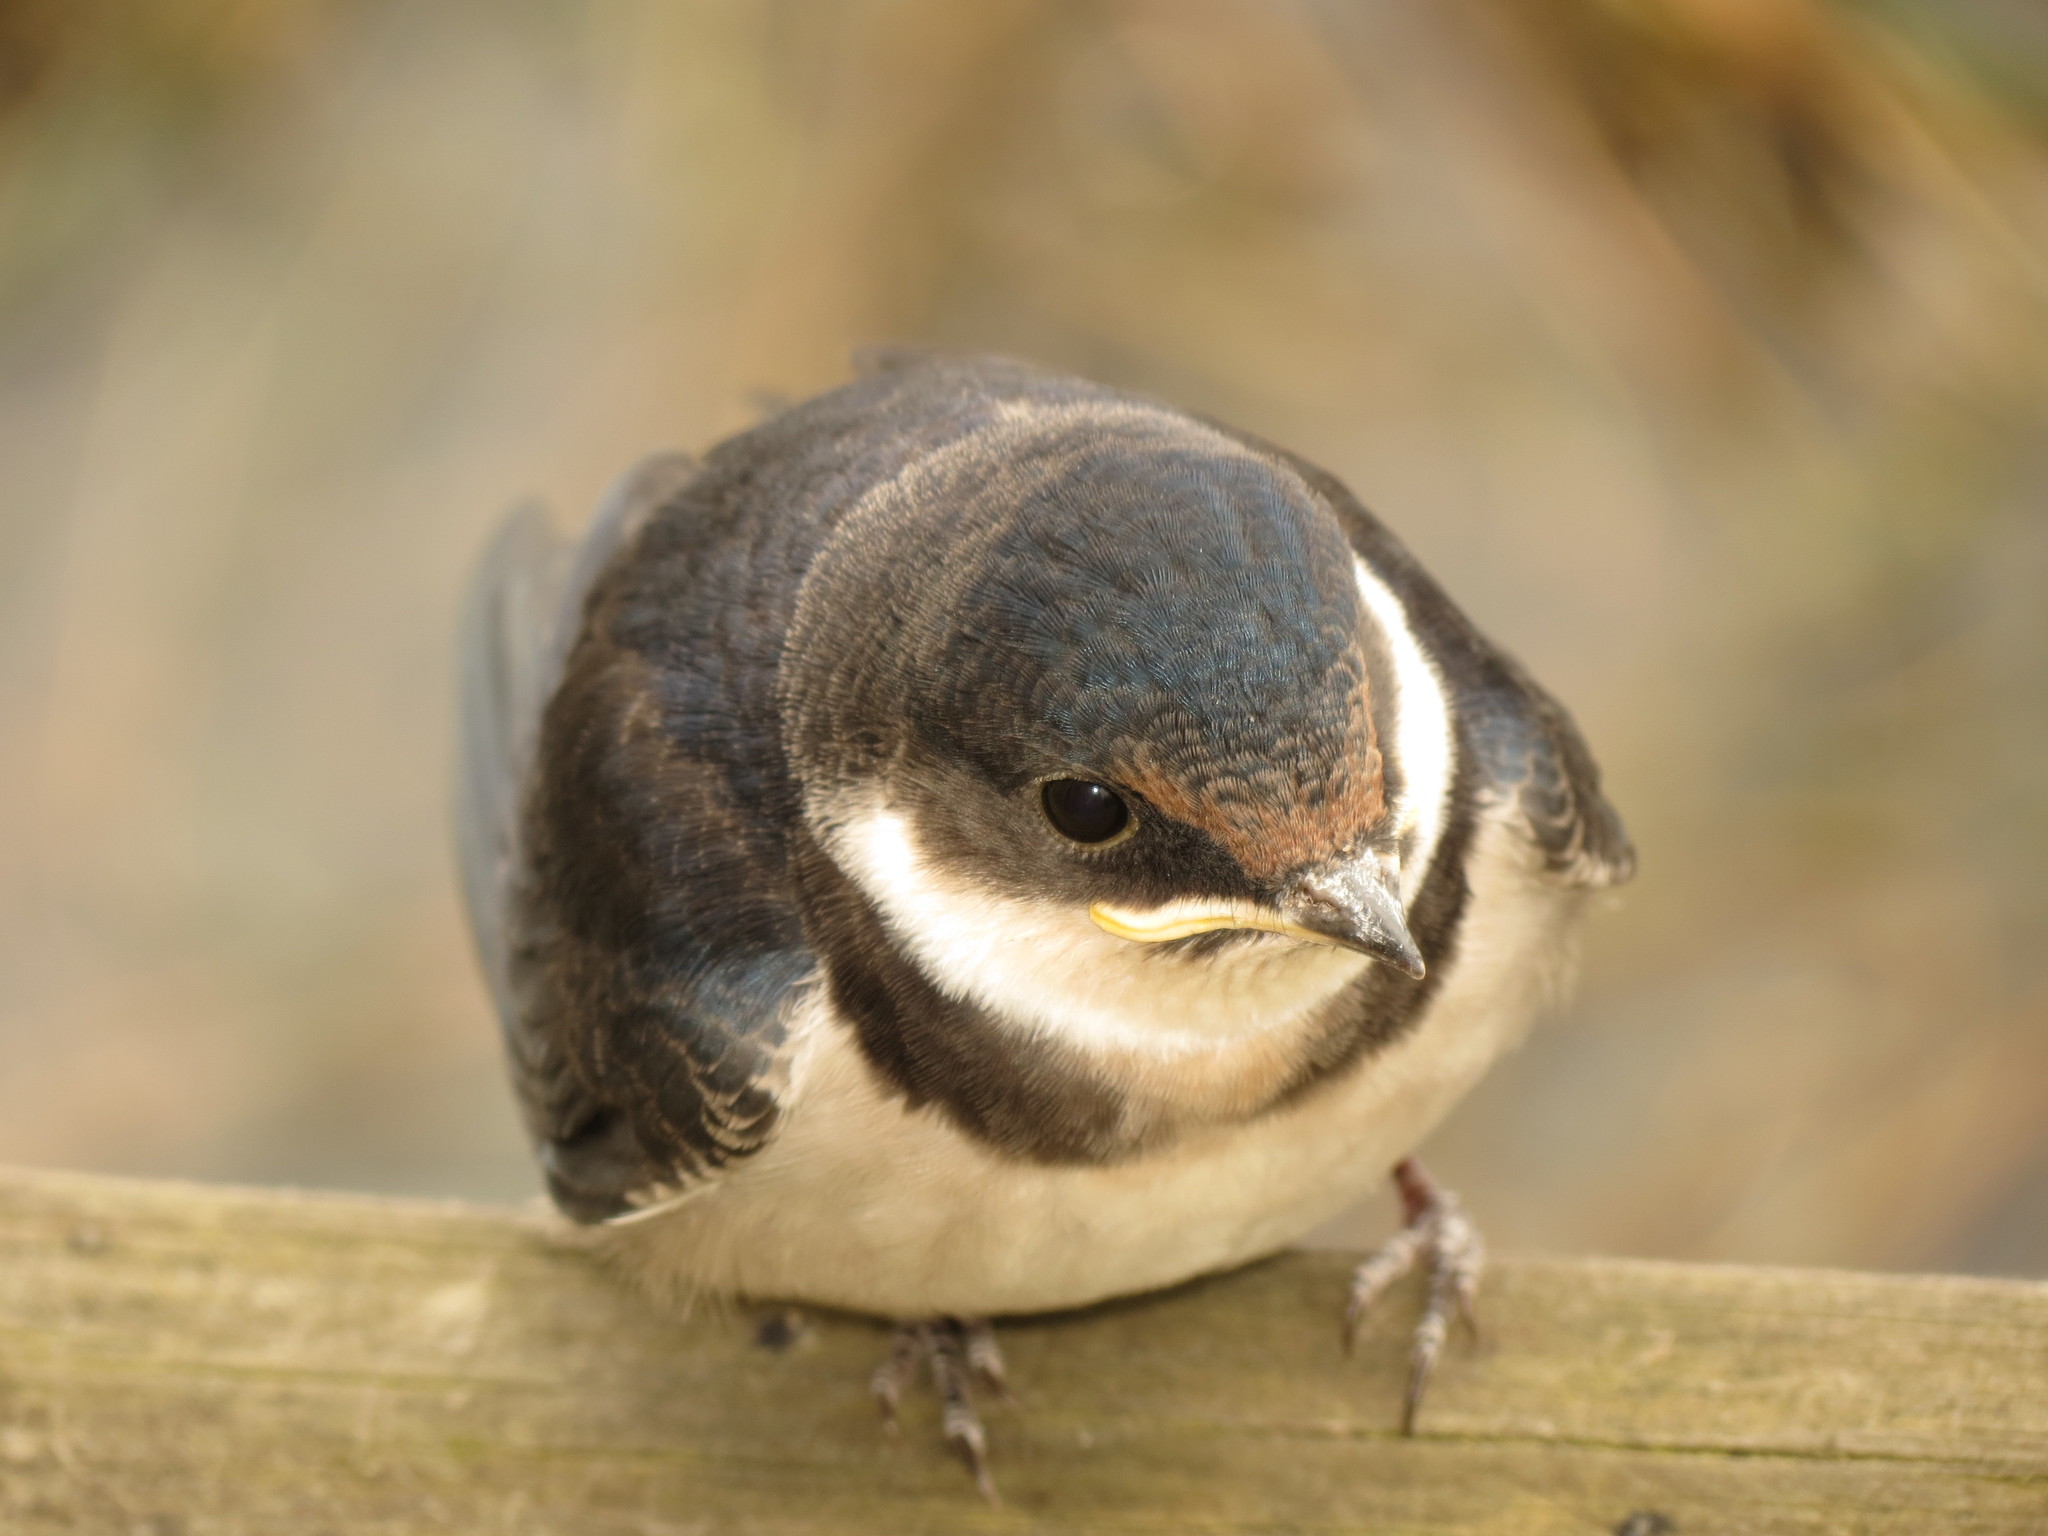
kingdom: Animalia
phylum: Chordata
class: Aves
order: Passeriformes
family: Hirundinidae
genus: Hirundo
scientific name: Hirundo albigularis
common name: White-throated swallow
